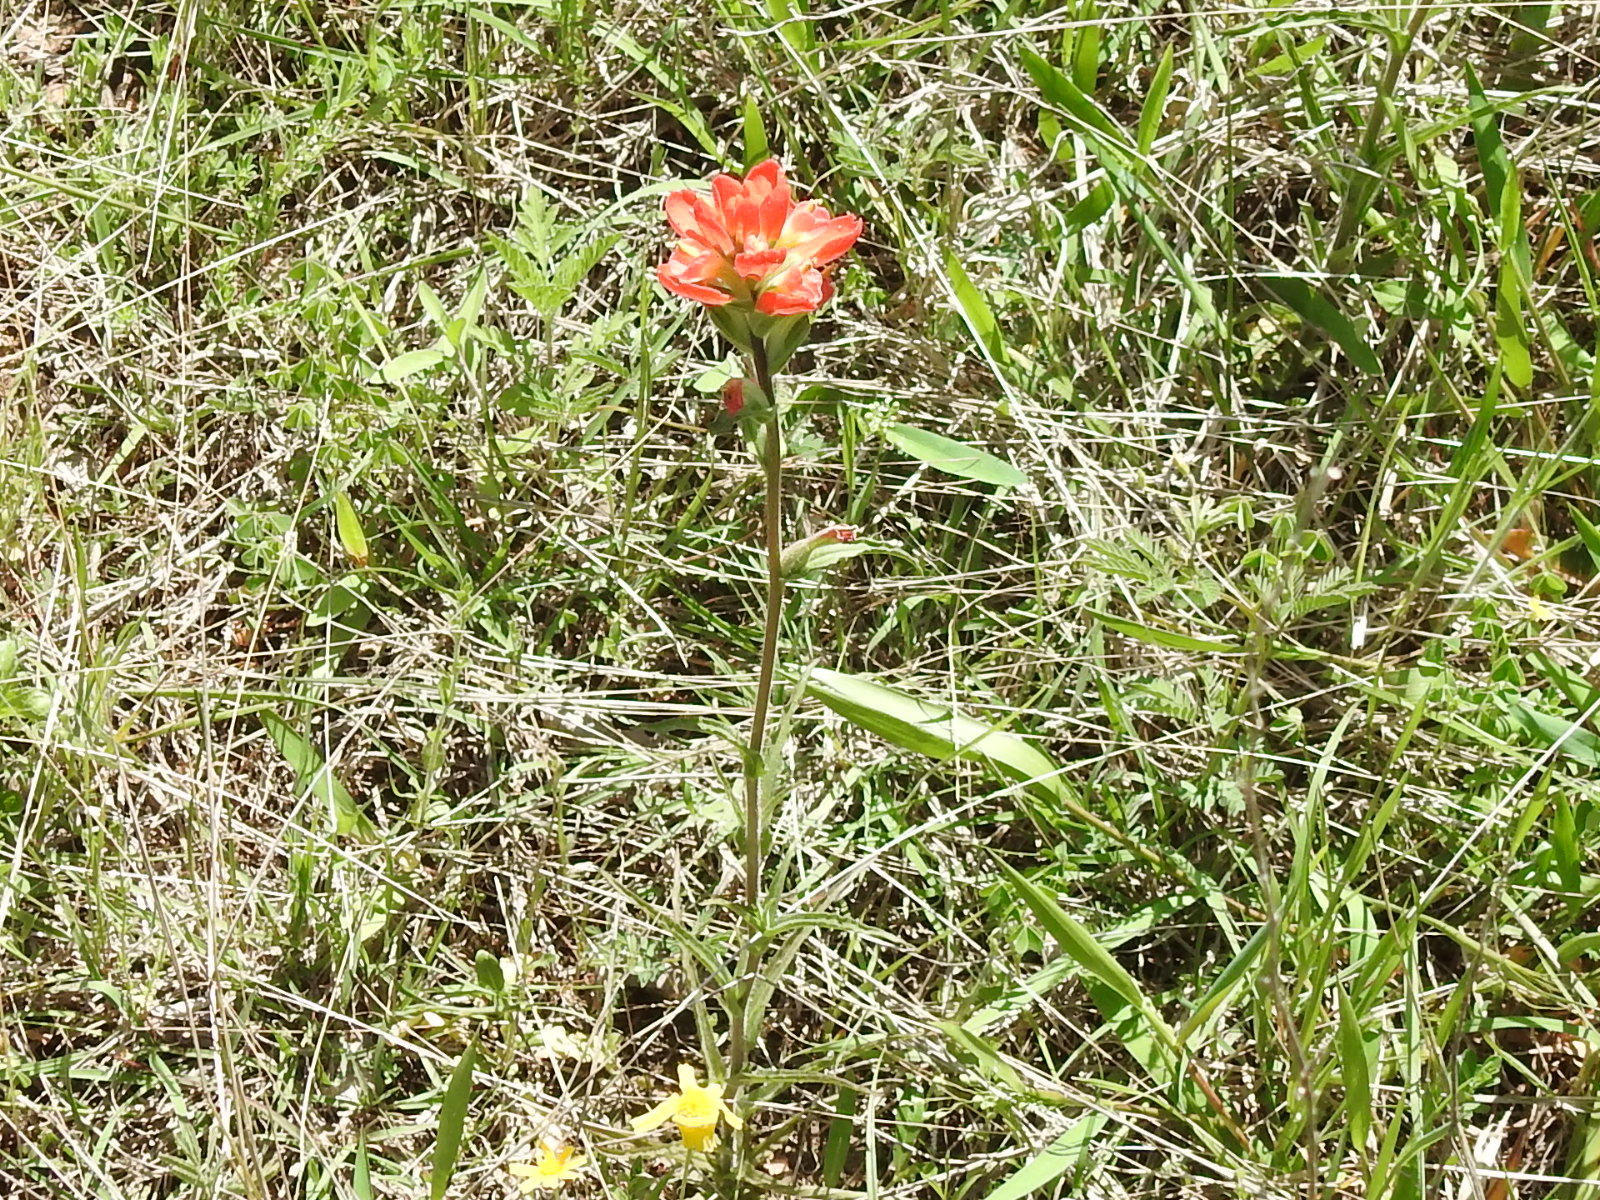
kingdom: Plantae
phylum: Tracheophyta
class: Magnoliopsida
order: Lamiales
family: Orobanchaceae
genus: Castilleja
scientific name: Castilleja indivisa
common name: Texas paintbrush
